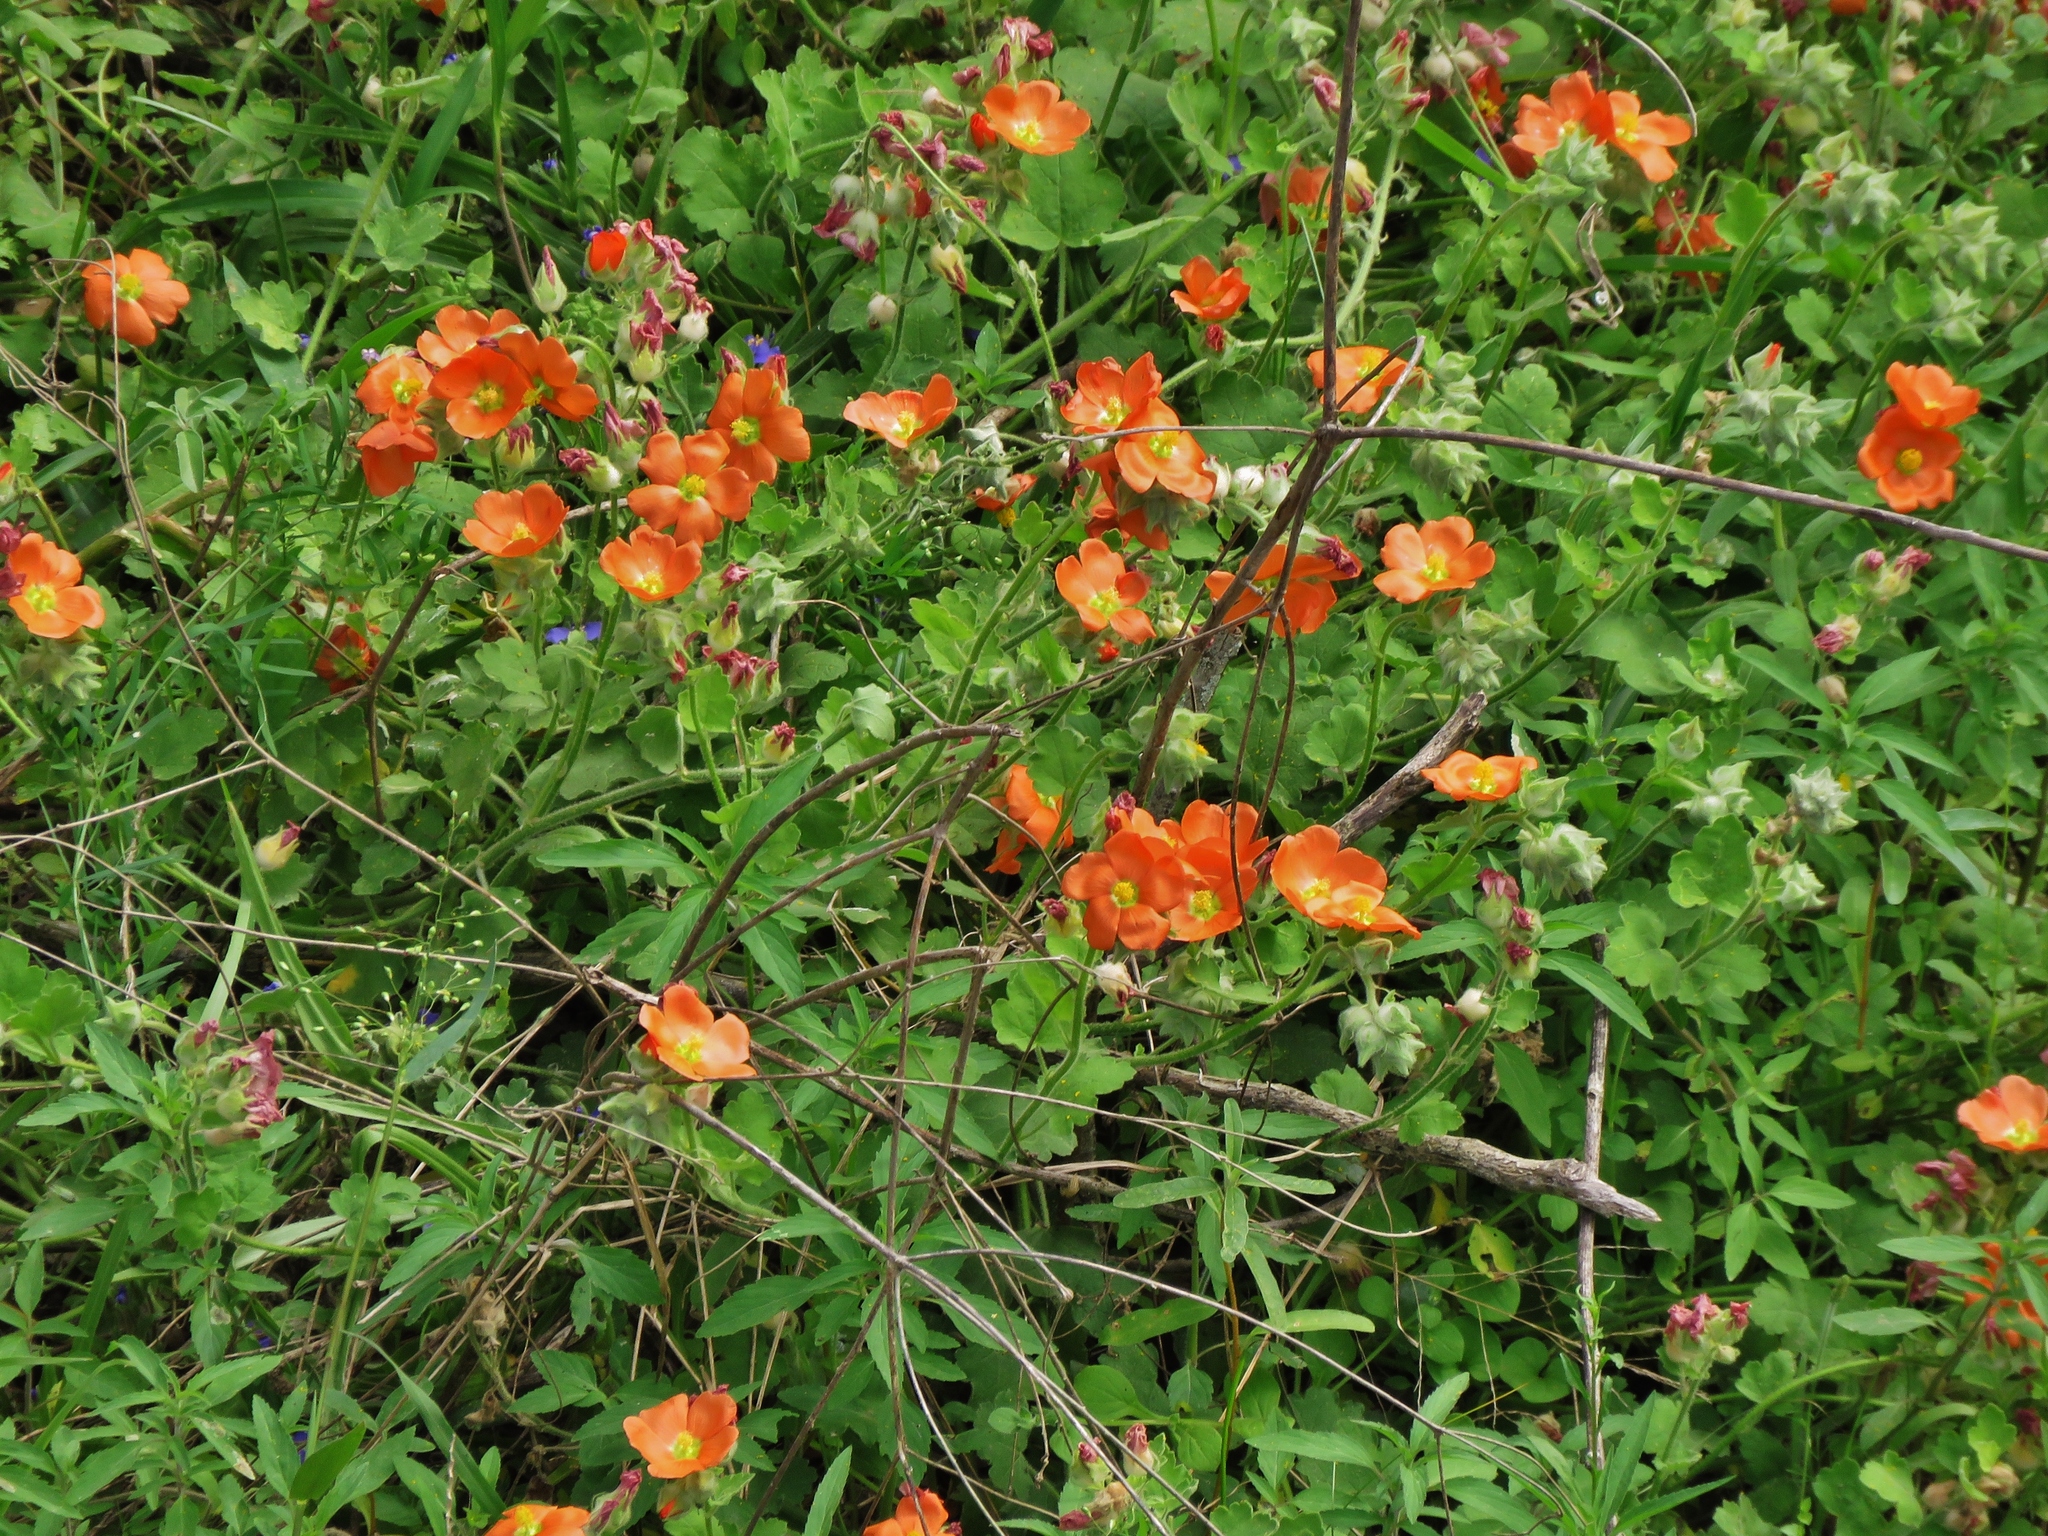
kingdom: Plantae
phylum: Tracheophyta
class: Magnoliopsida
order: Malvales
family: Malvaceae
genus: Sphaeralcea
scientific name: Sphaeralcea lindheimeri
